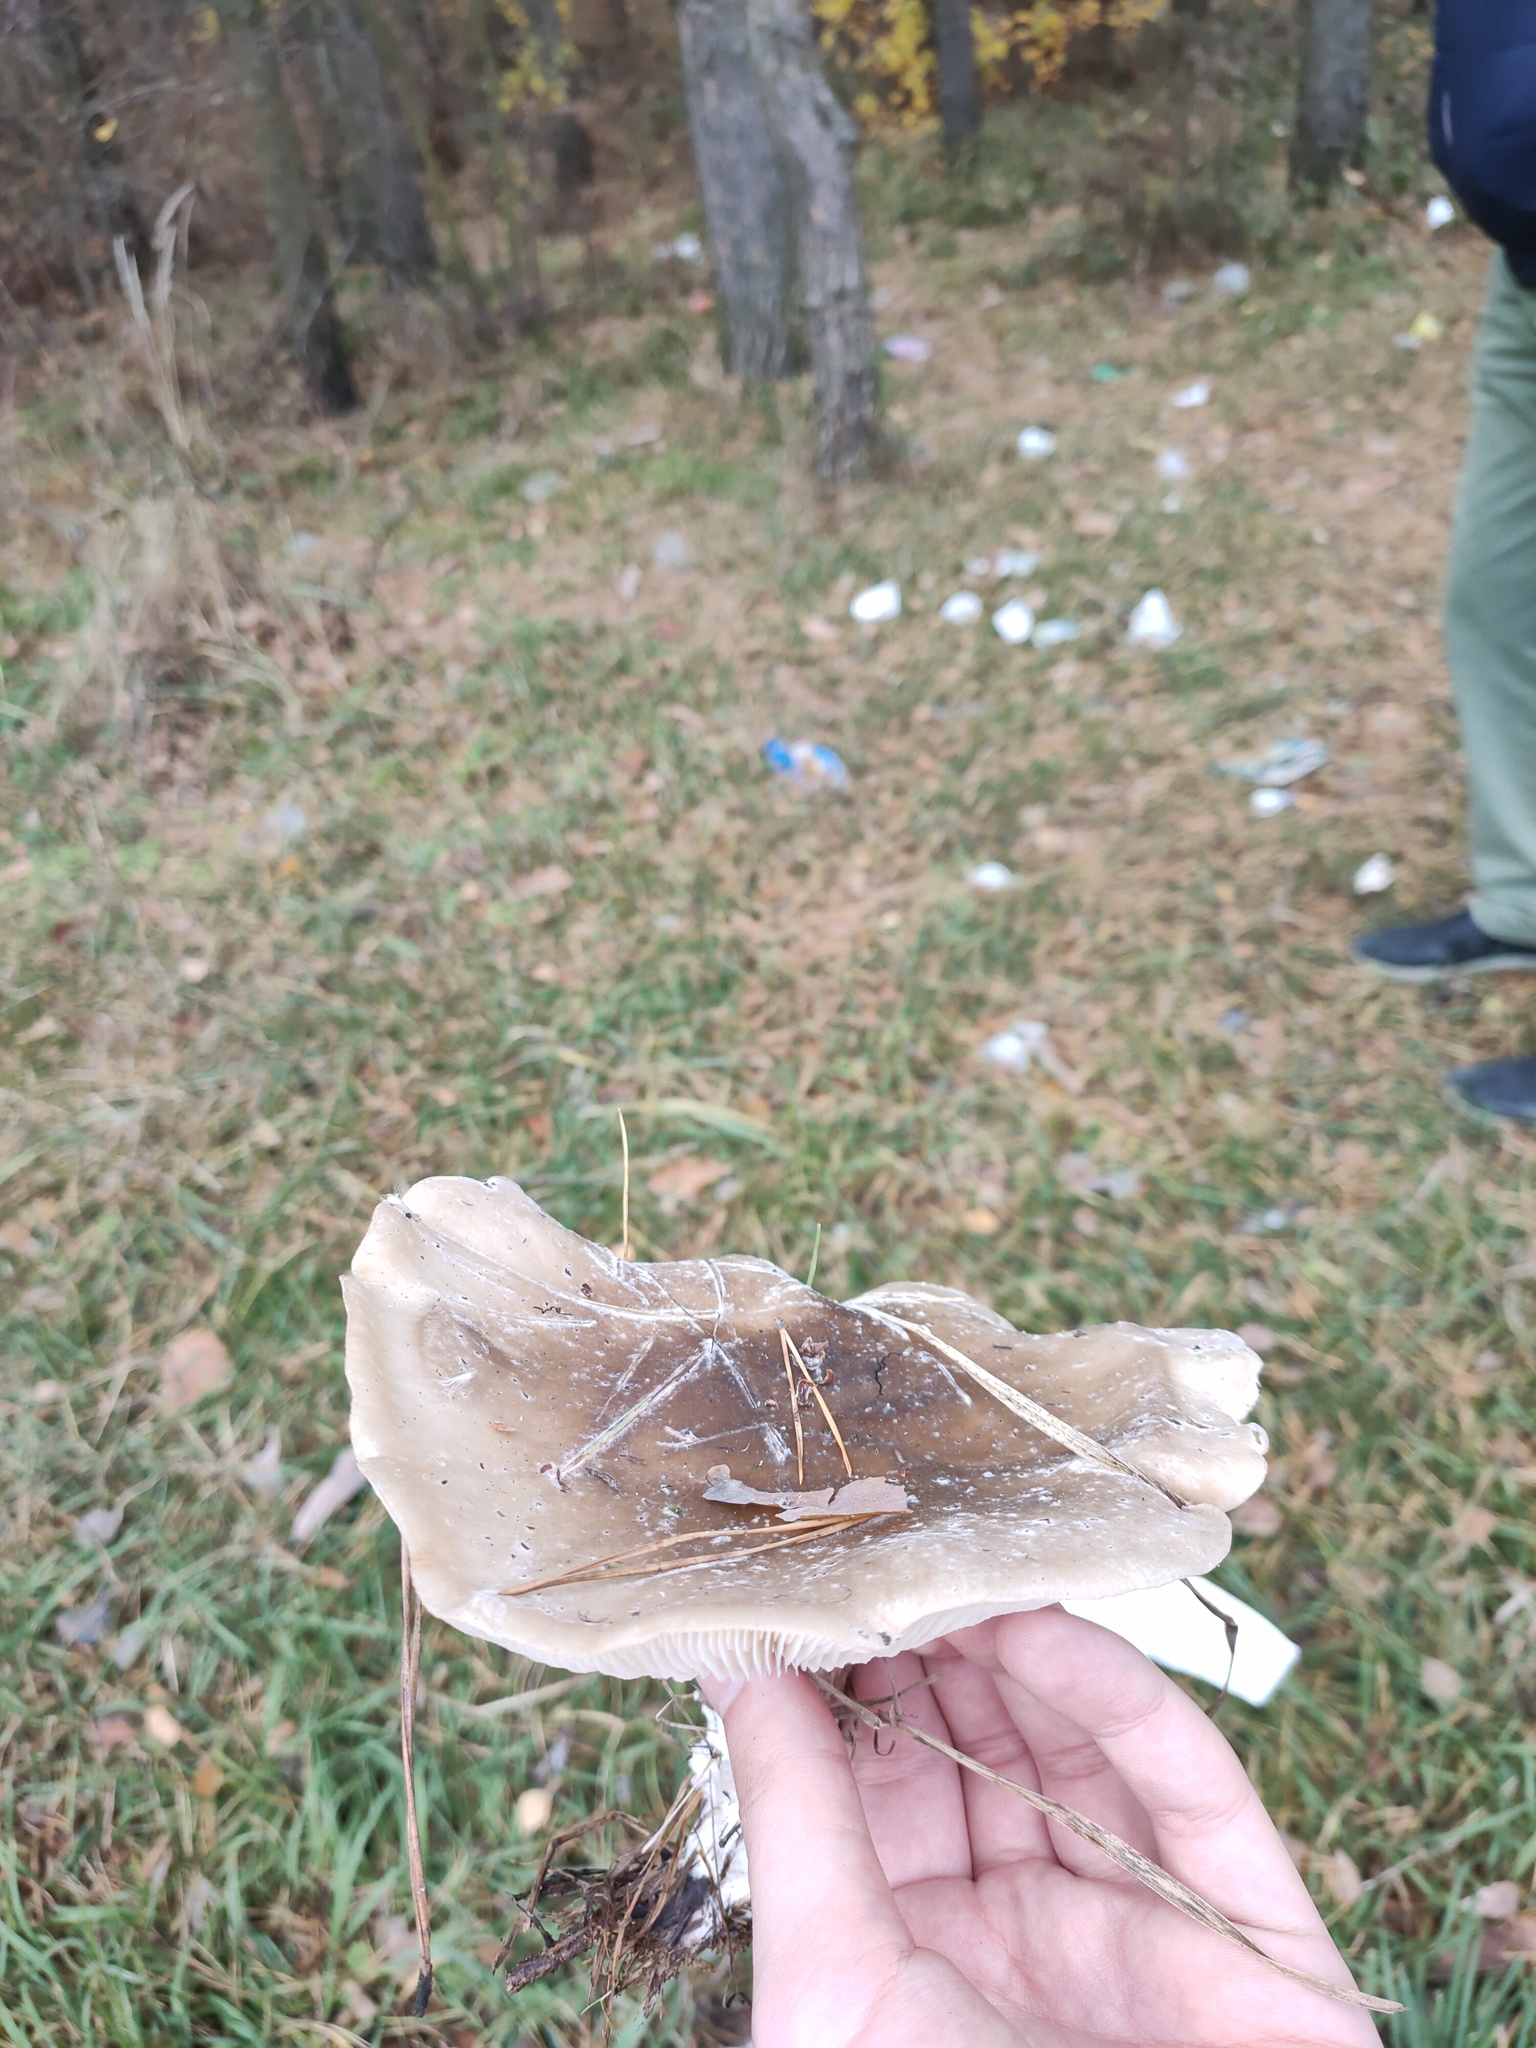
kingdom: Fungi
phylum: Basidiomycota
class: Agaricomycetes
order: Agaricales
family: Tricholomataceae
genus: Clitocybe
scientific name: Clitocybe nebularis
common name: Clouded agaric
